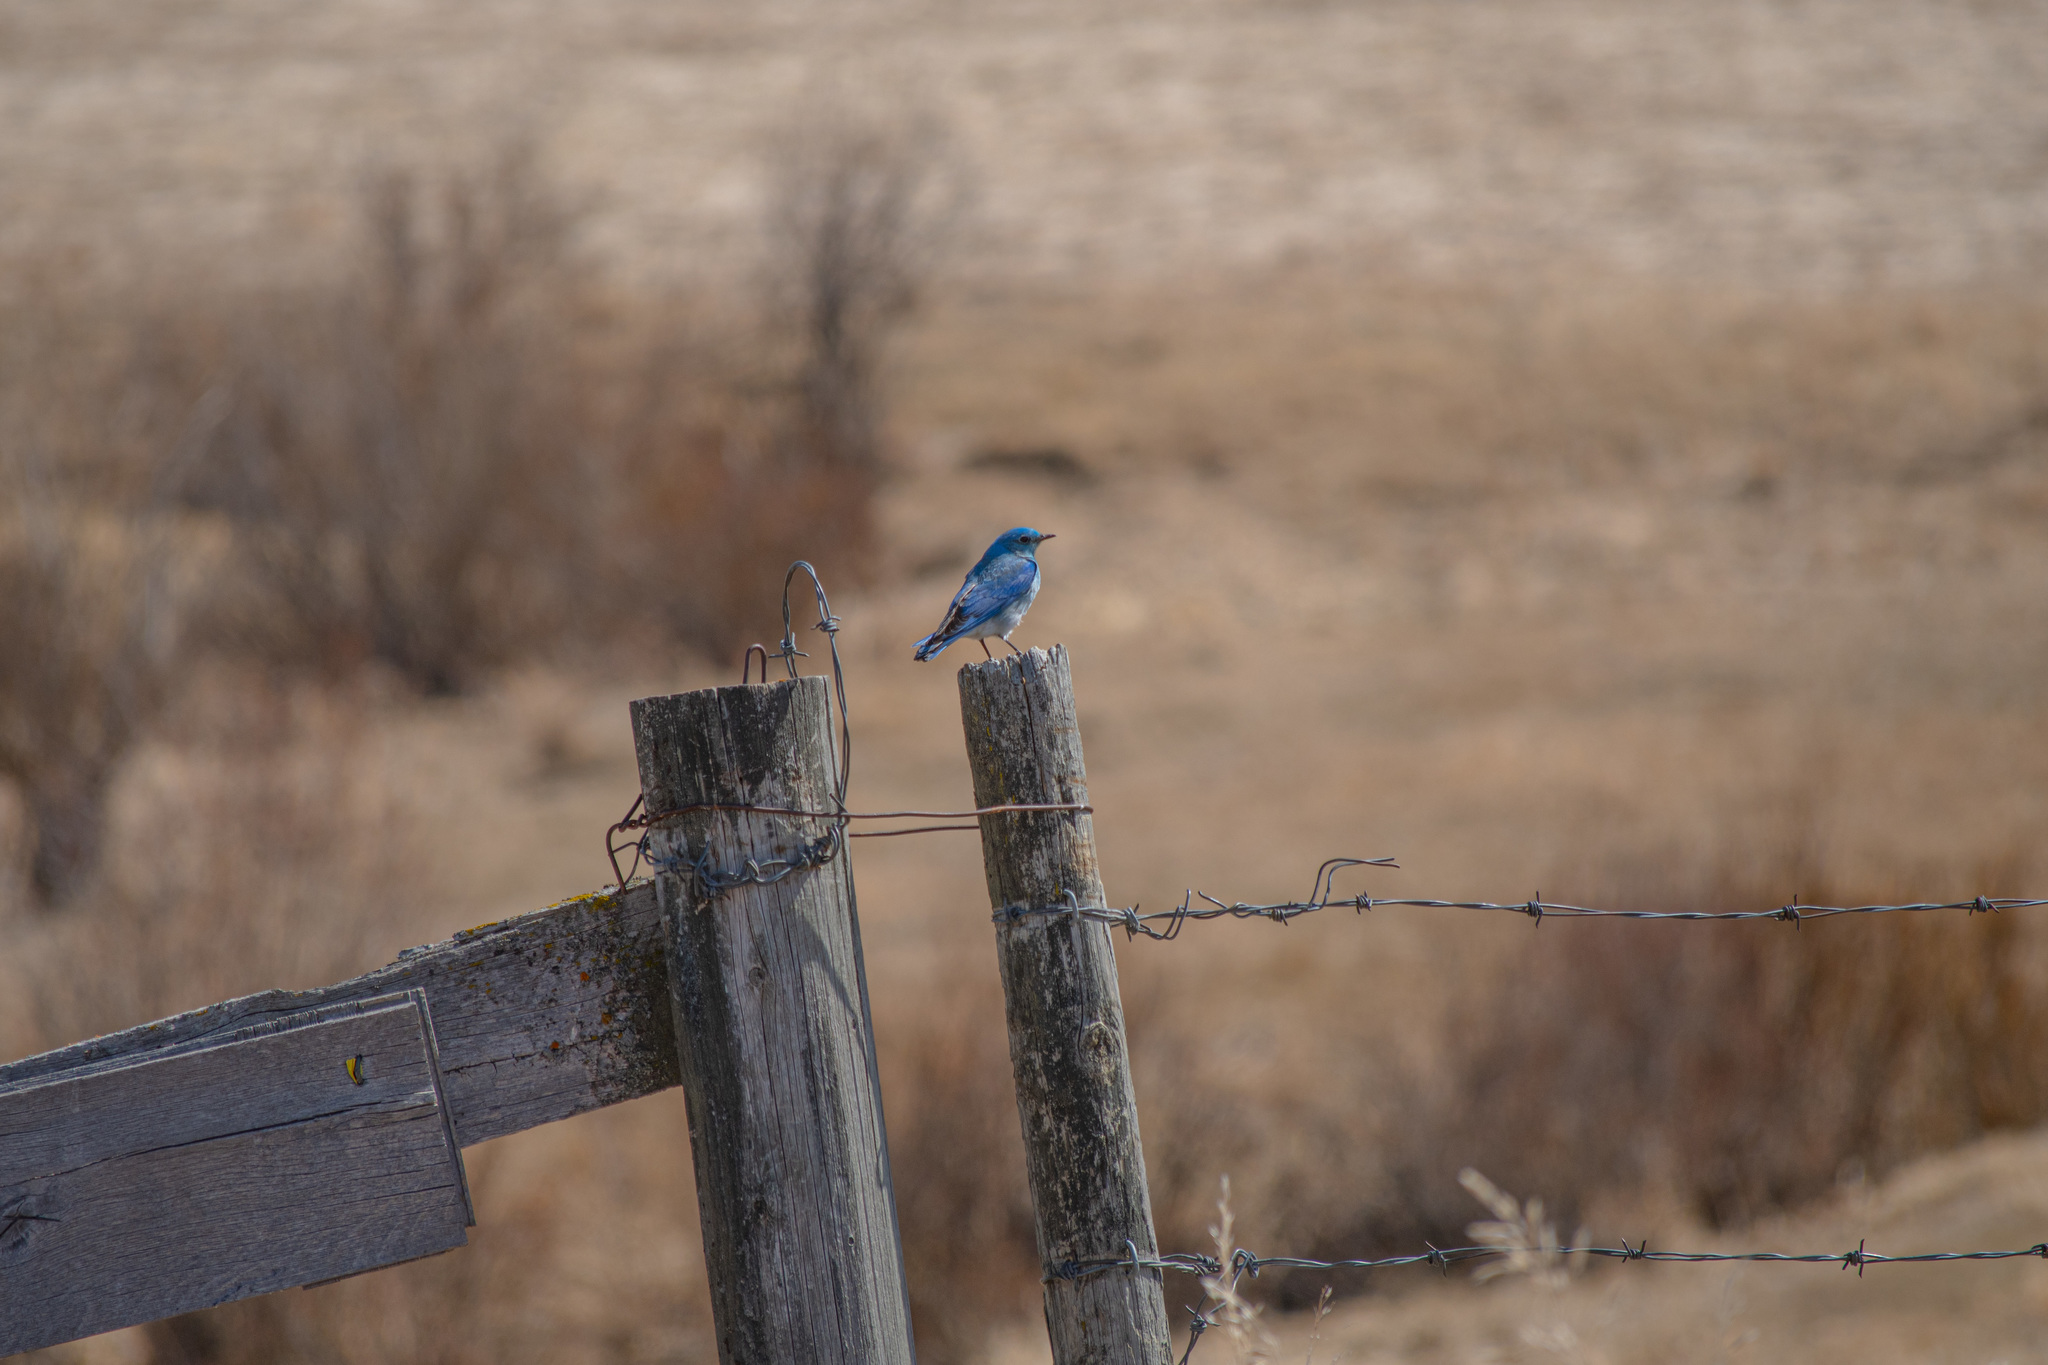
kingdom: Animalia
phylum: Chordata
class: Aves
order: Passeriformes
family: Turdidae
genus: Sialia
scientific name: Sialia currucoides
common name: Mountain bluebird
